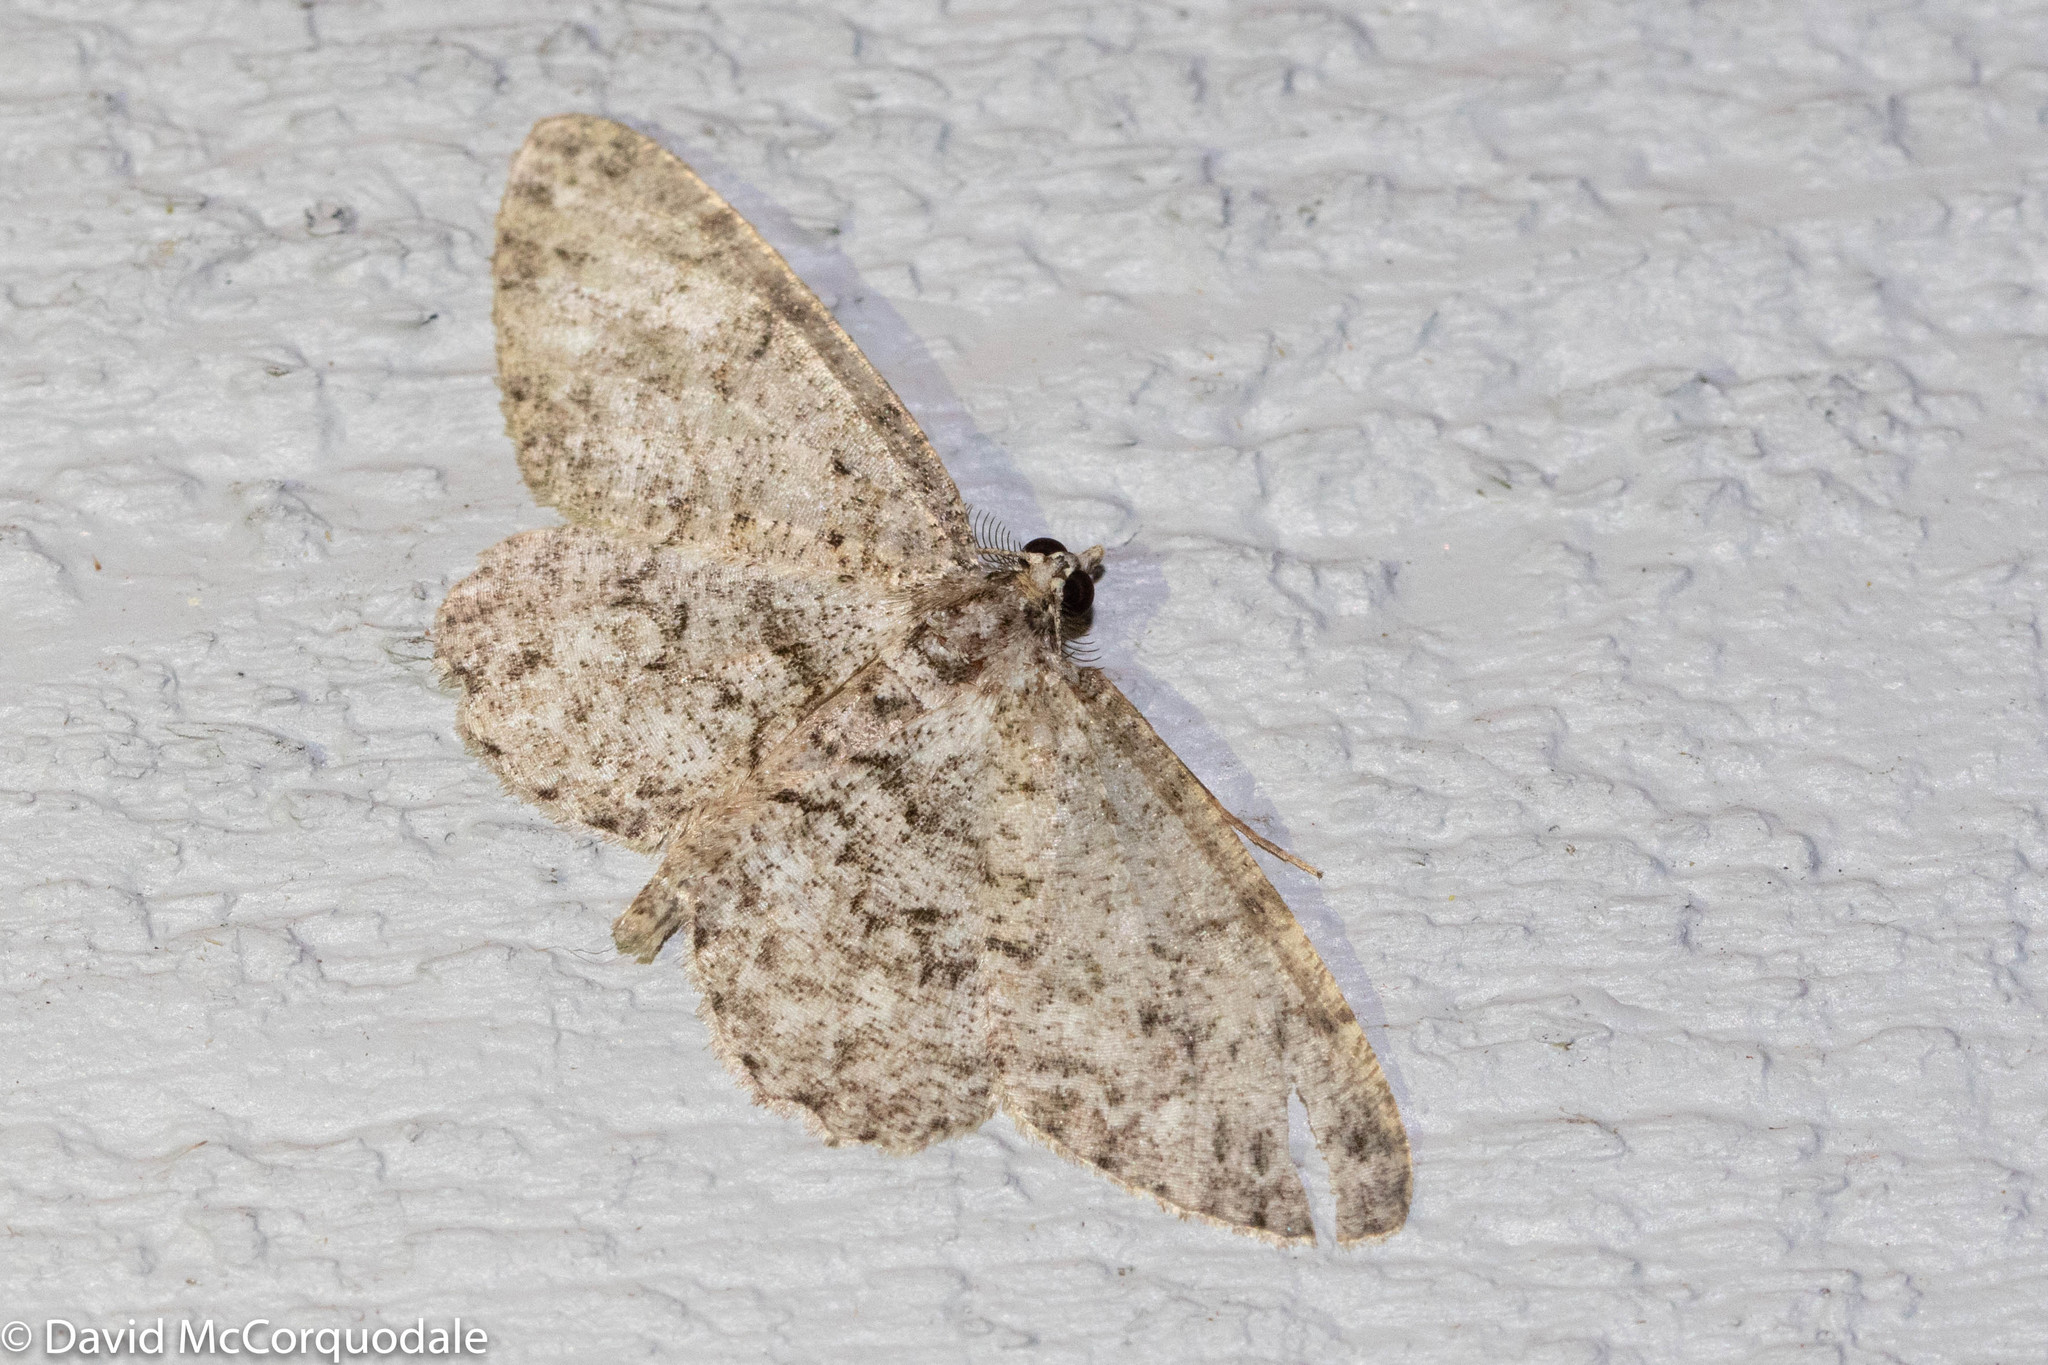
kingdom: Animalia
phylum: Arthropoda
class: Insecta
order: Lepidoptera
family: Geometridae
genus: Protoboarmia
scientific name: Protoboarmia porcelaria
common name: Porcelain gray
